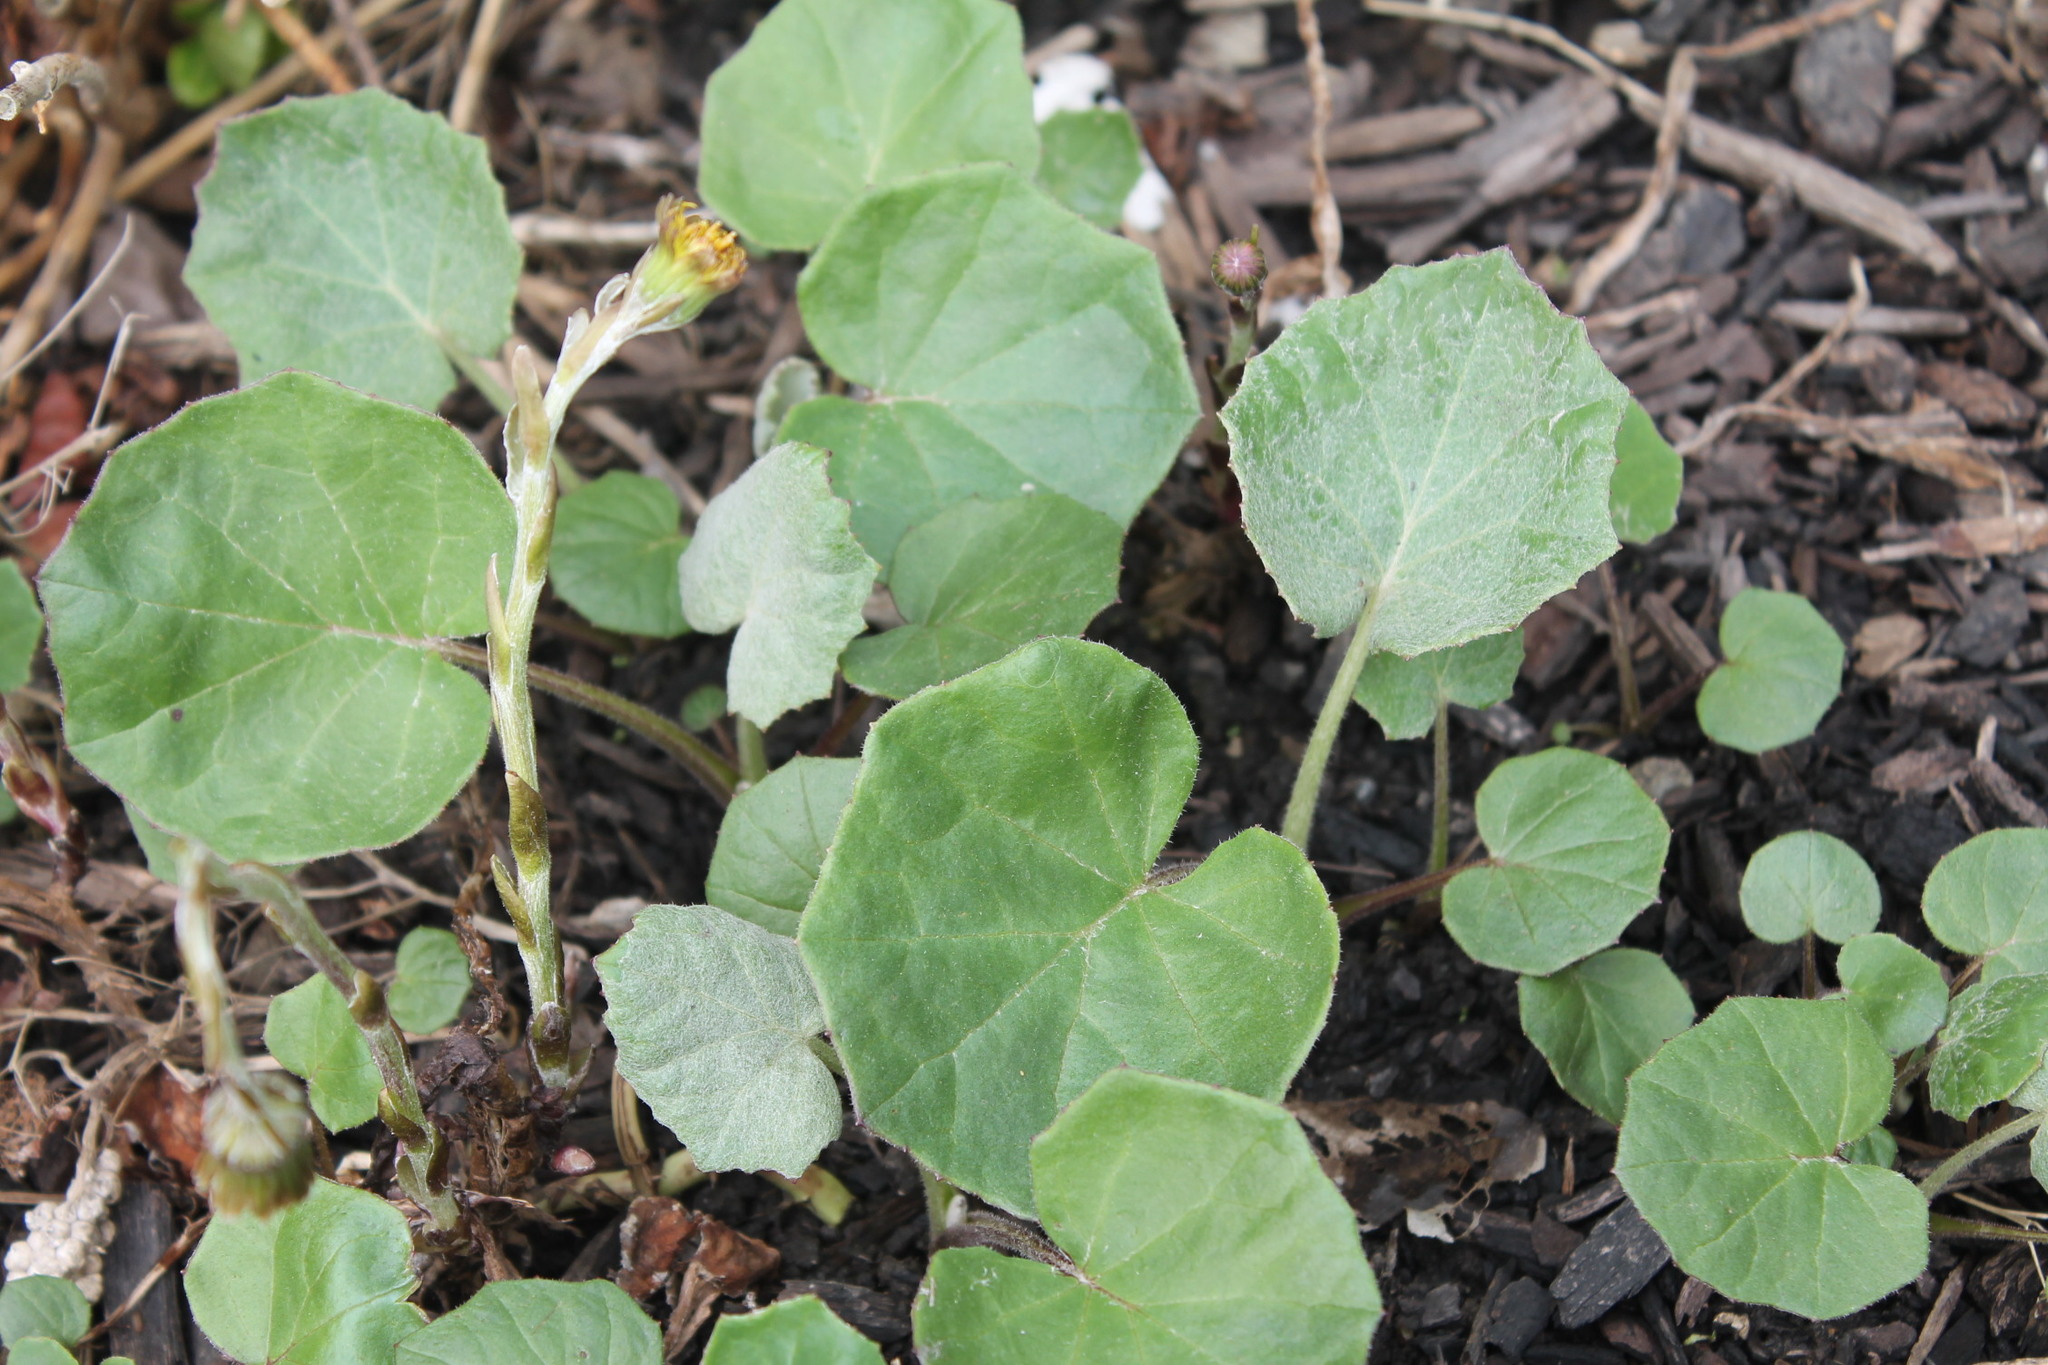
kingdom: Plantae
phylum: Tracheophyta
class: Magnoliopsida
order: Asterales
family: Asteraceae
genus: Tussilago
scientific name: Tussilago farfara
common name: Coltsfoot
